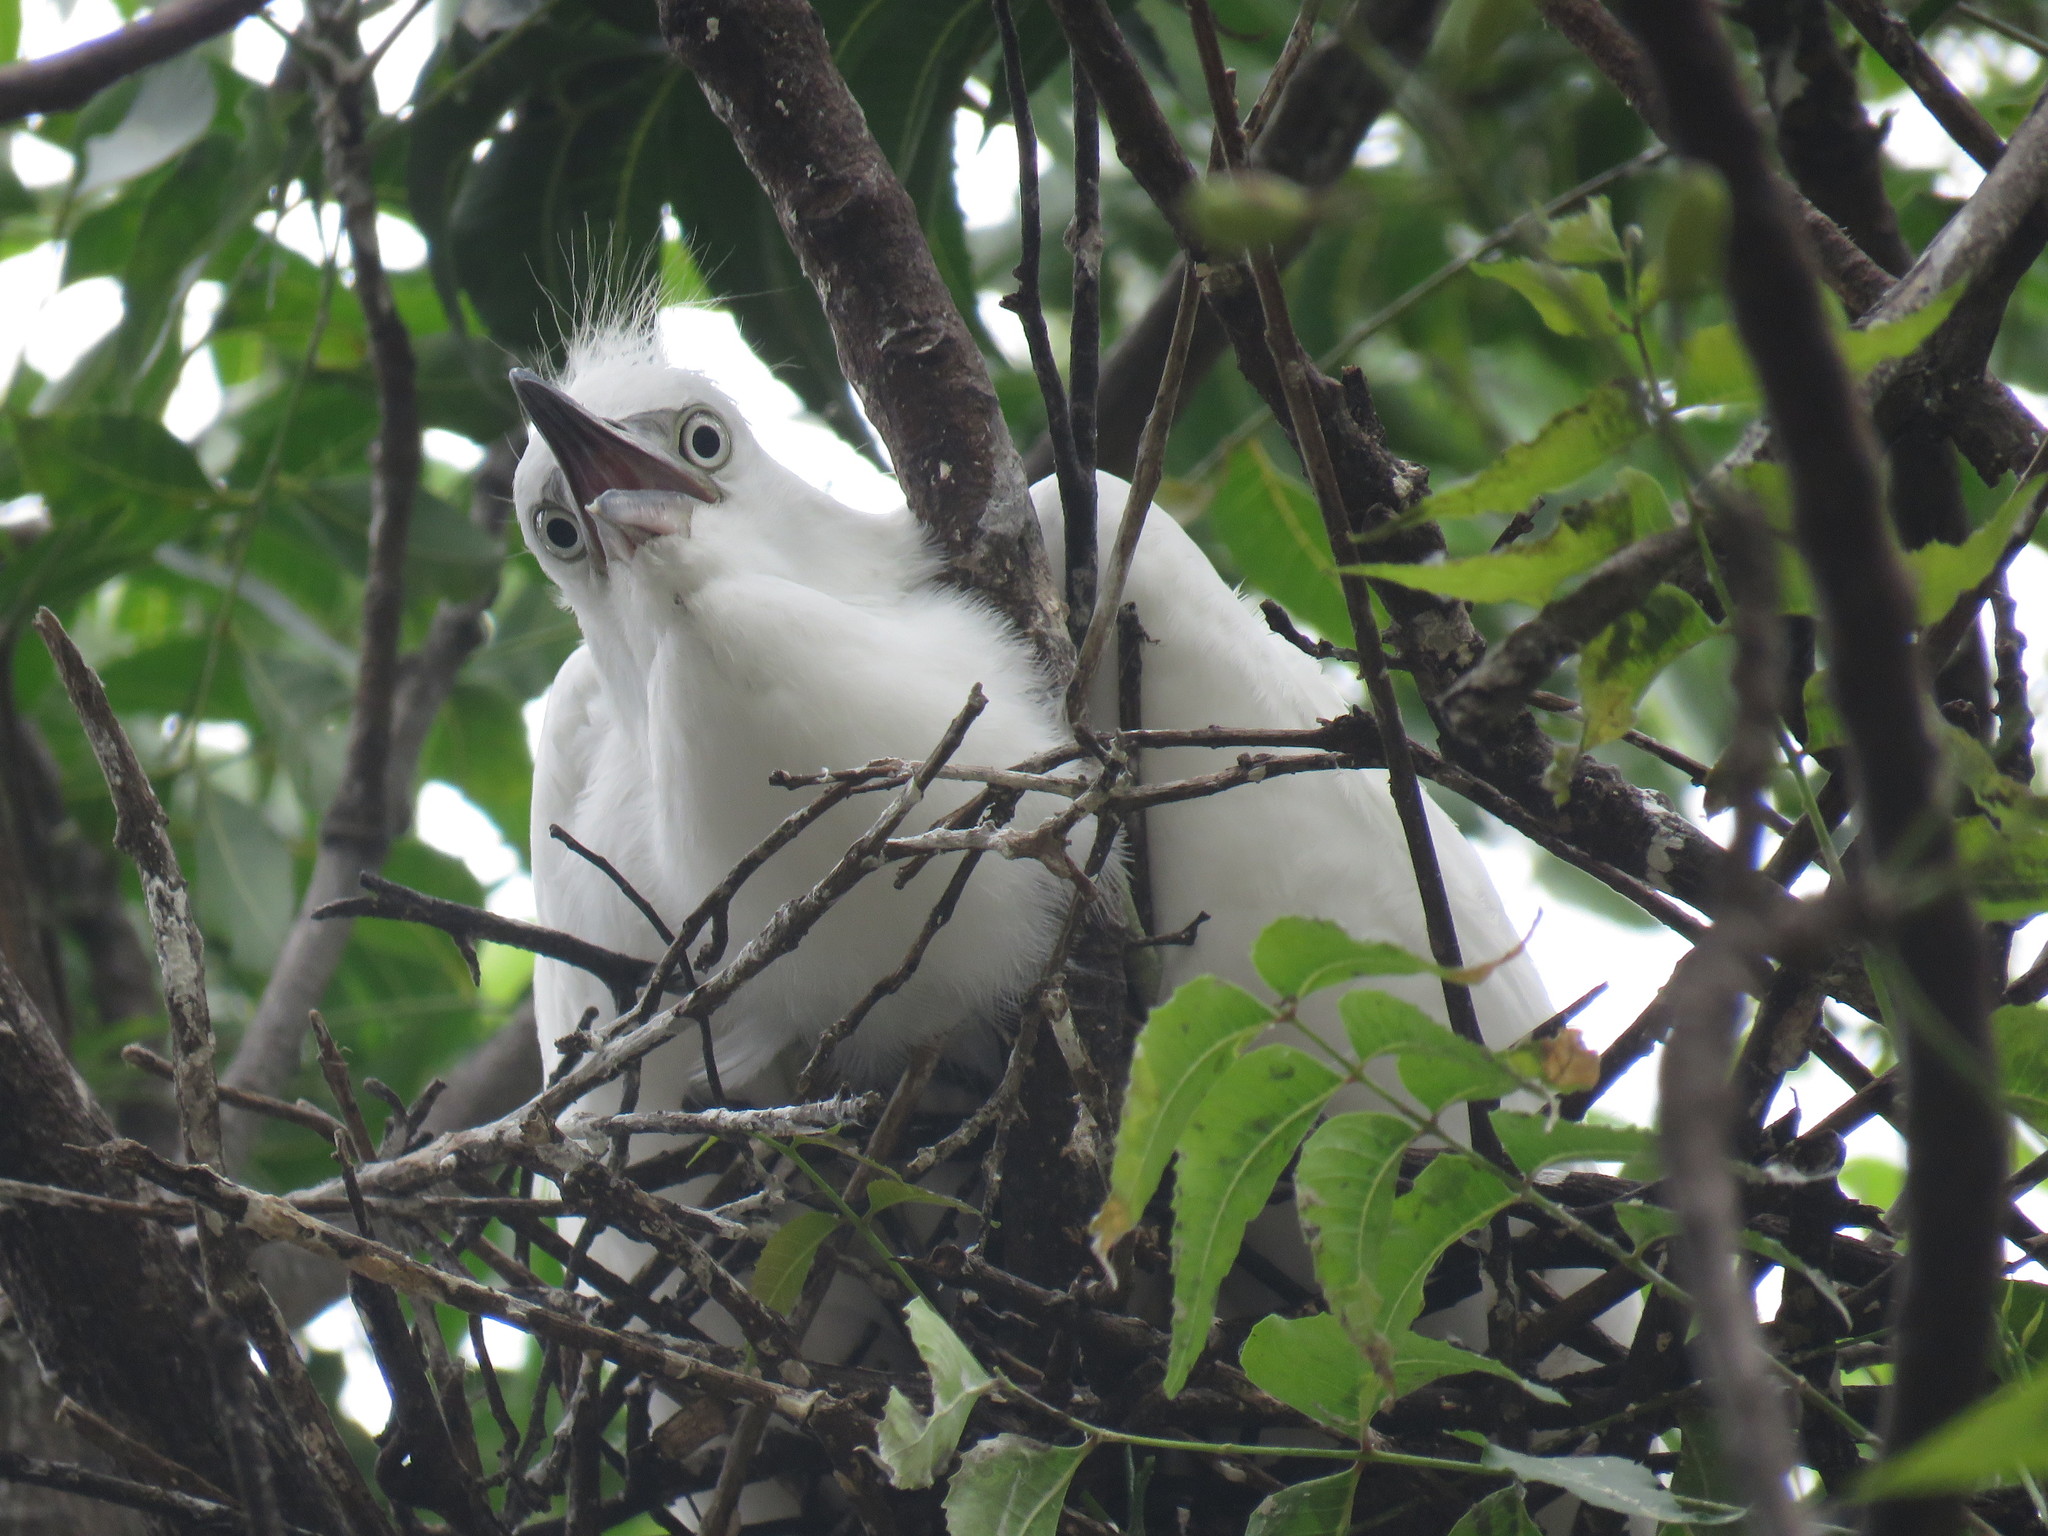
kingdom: Animalia
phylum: Chordata
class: Aves
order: Pelecaniformes
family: Ardeidae
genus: Egretta
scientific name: Egretta thula
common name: Snowy egret
